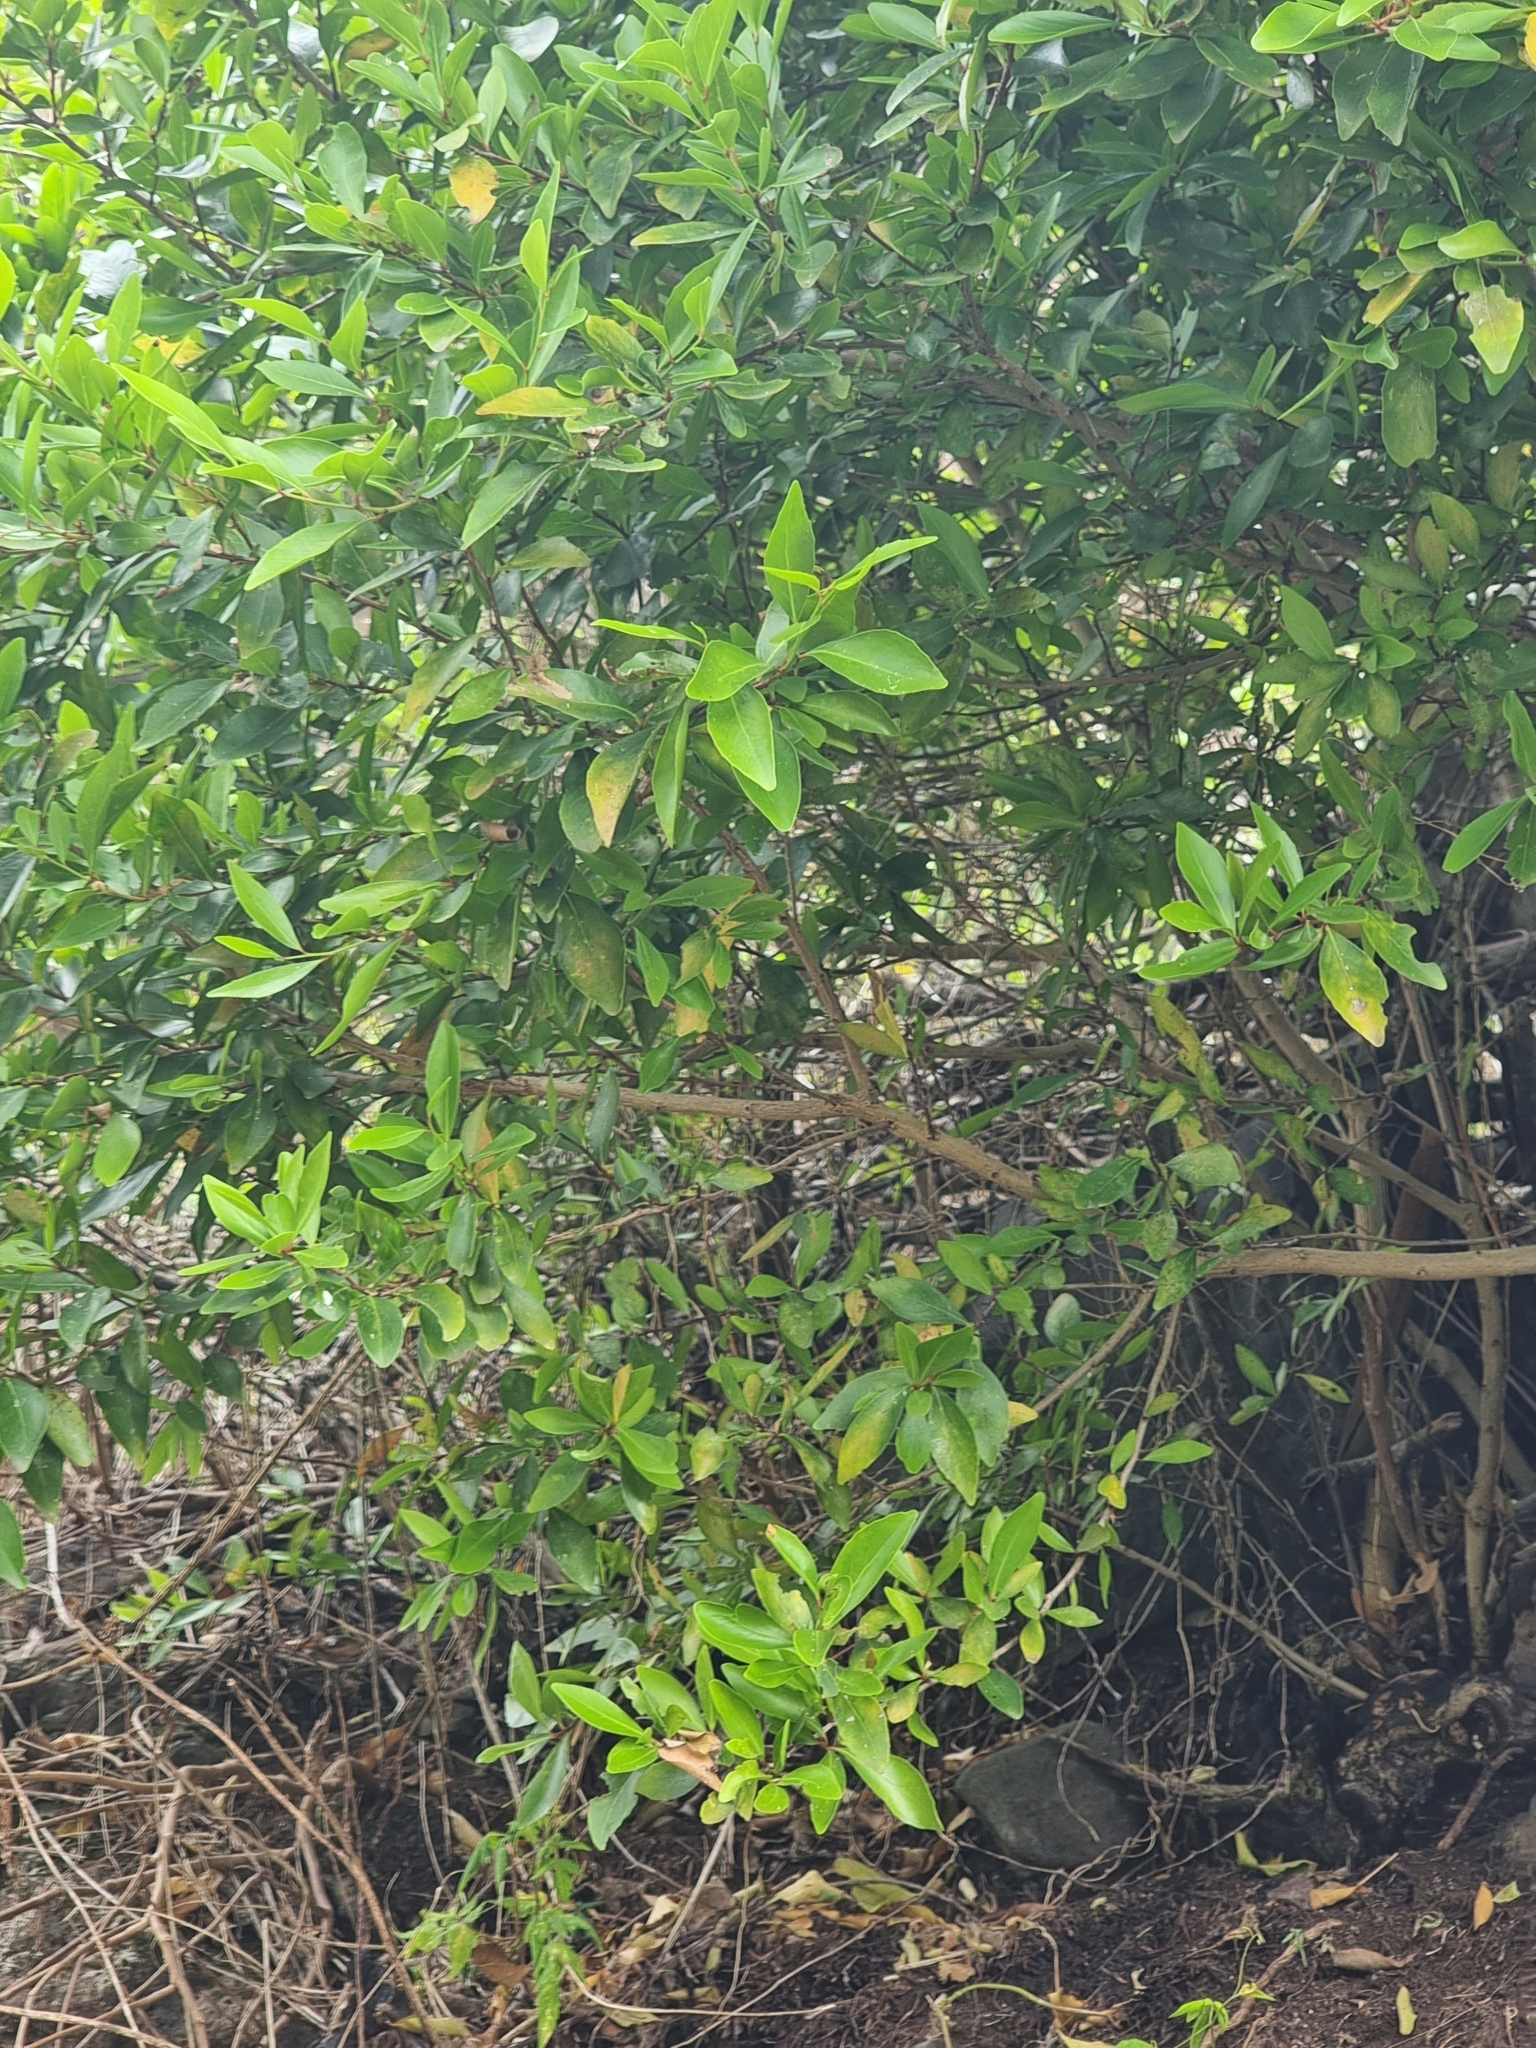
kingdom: Plantae
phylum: Tracheophyta
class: Magnoliopsida
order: Celastrales
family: Celastraceae
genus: Gymnosporia
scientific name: Gymnosporia dryandri
